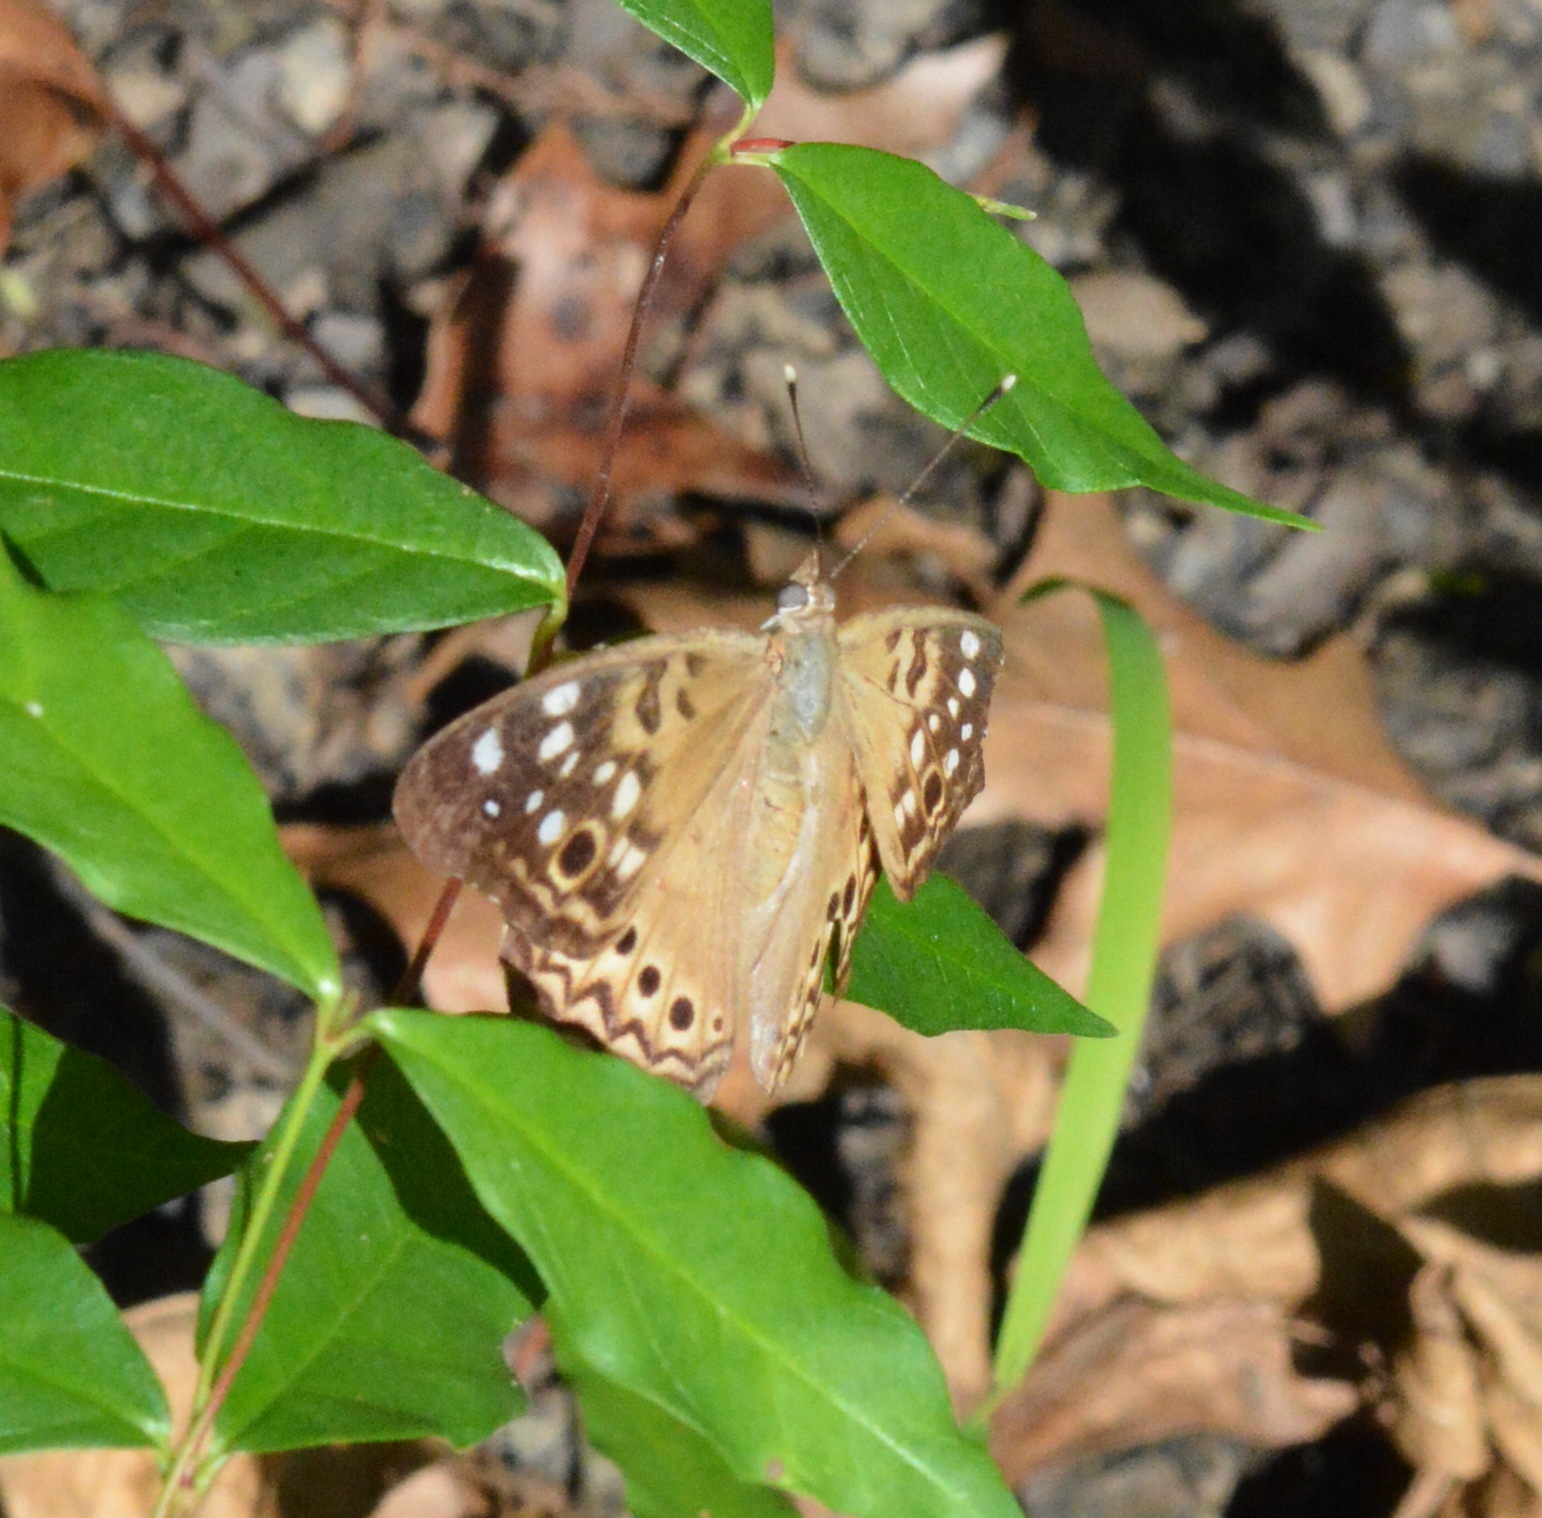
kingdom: Animalia
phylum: Arthropoda
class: Insecta
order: Lepidoptera
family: Nymphalidae
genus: Asterocampa
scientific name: Asterocampa celtis
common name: Hackberry emperor
